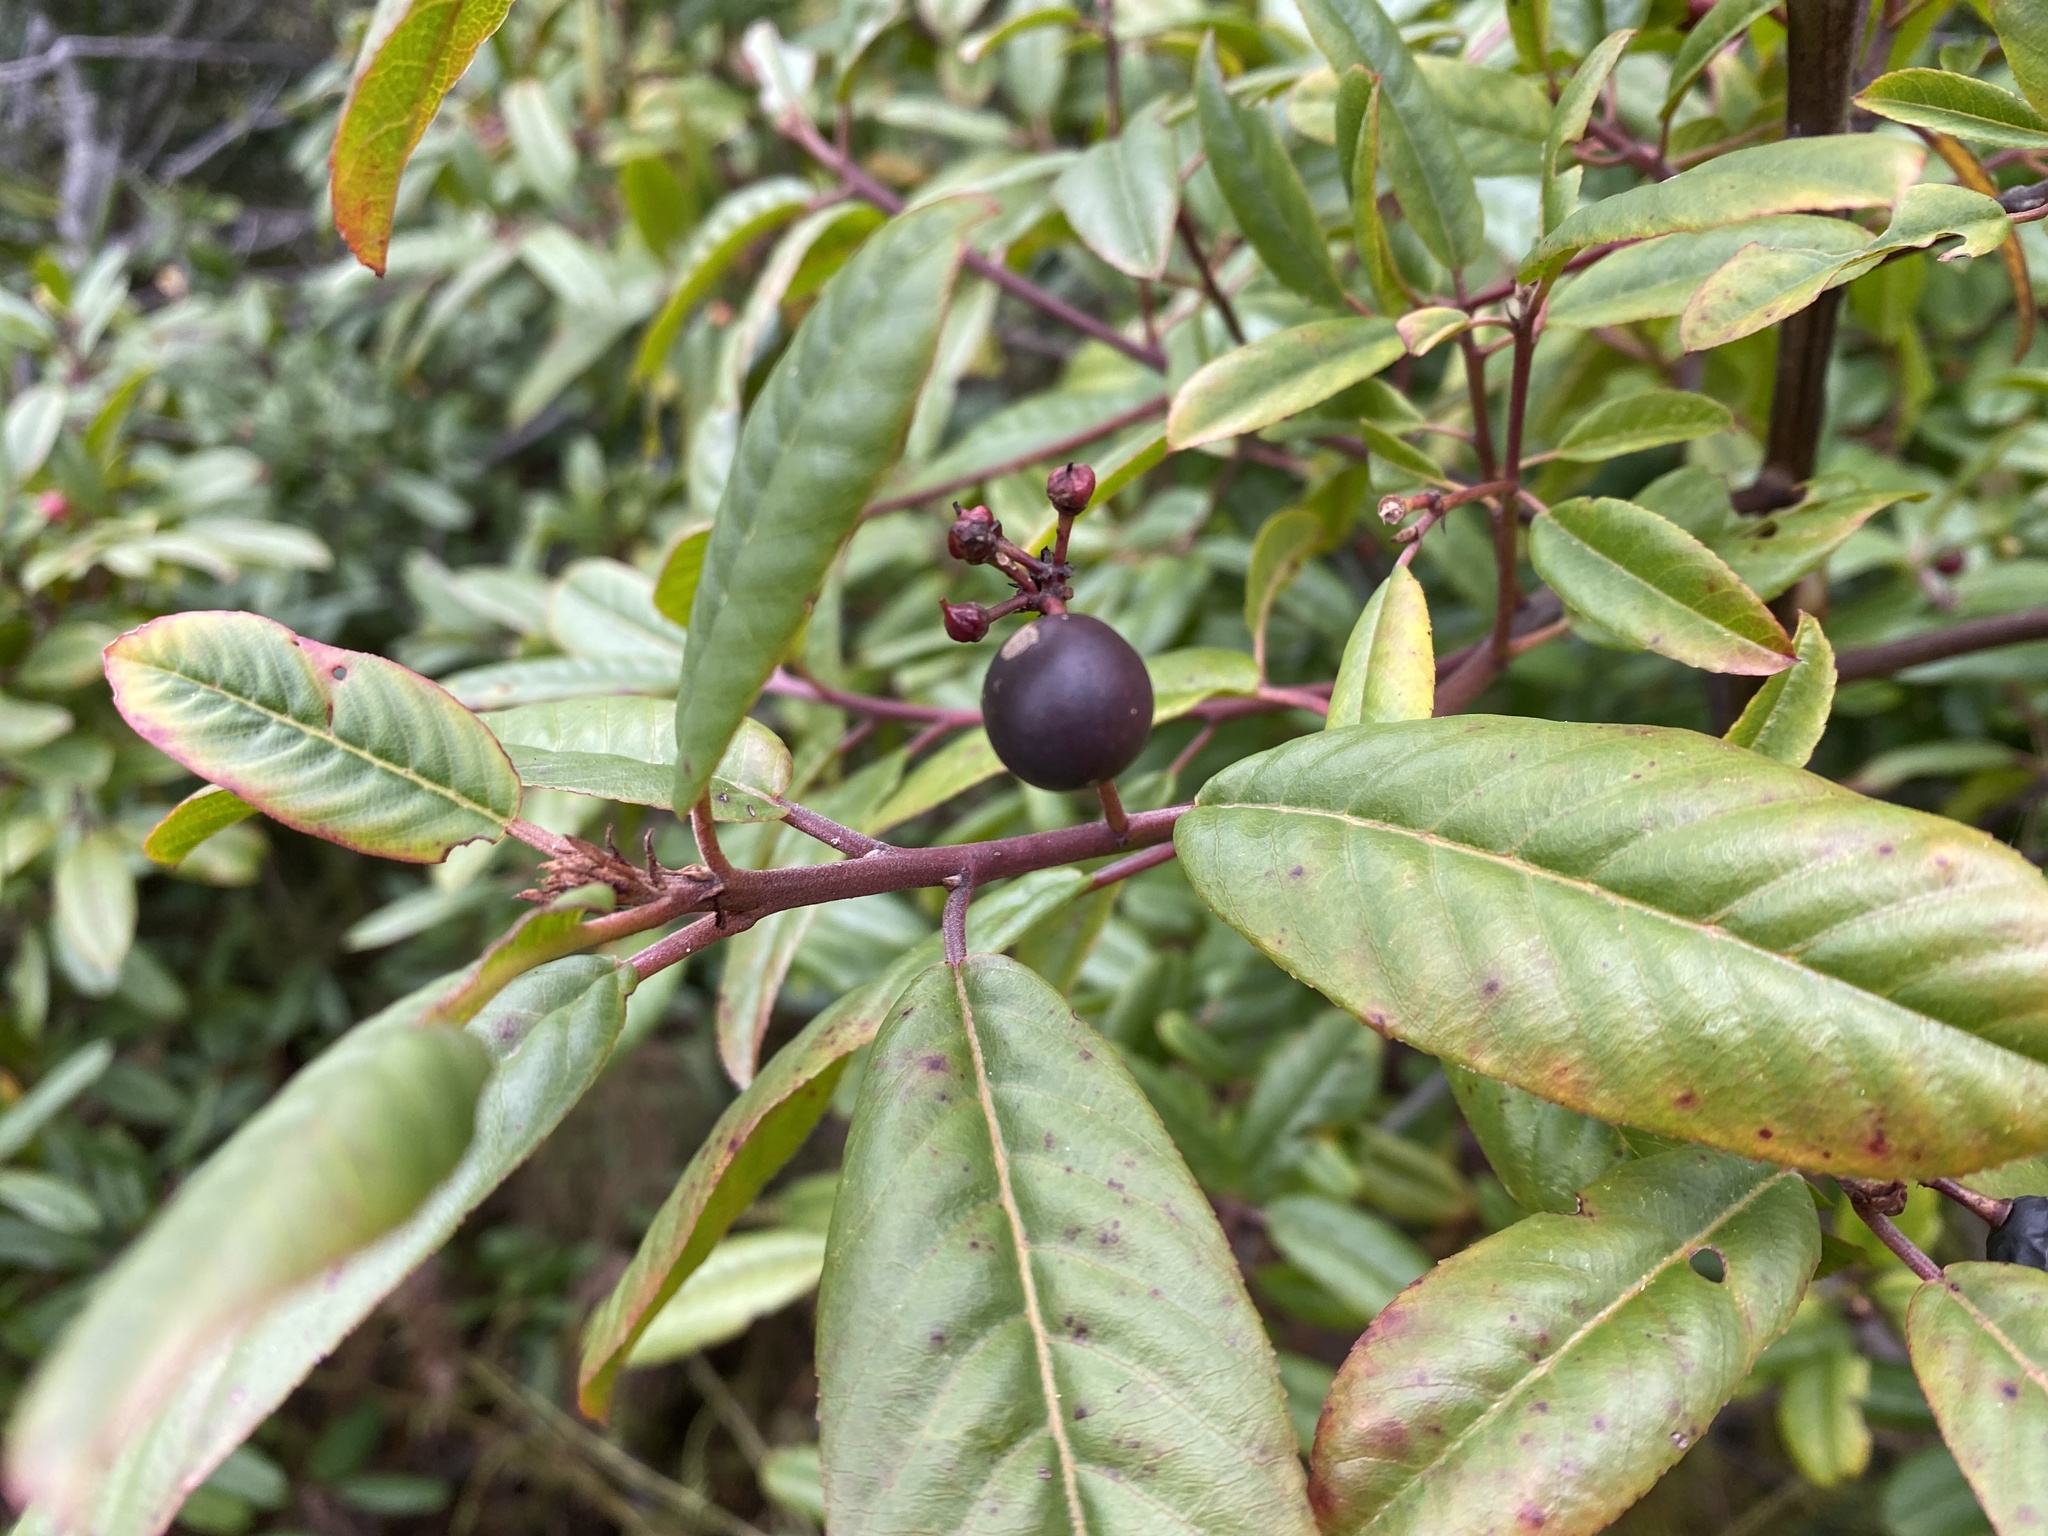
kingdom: Plantae
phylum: Tracheophyta
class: Magnoliopsida
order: Rosales
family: Rhamnaceae
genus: Frangula
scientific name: Frangula californica
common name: California buckthorn
